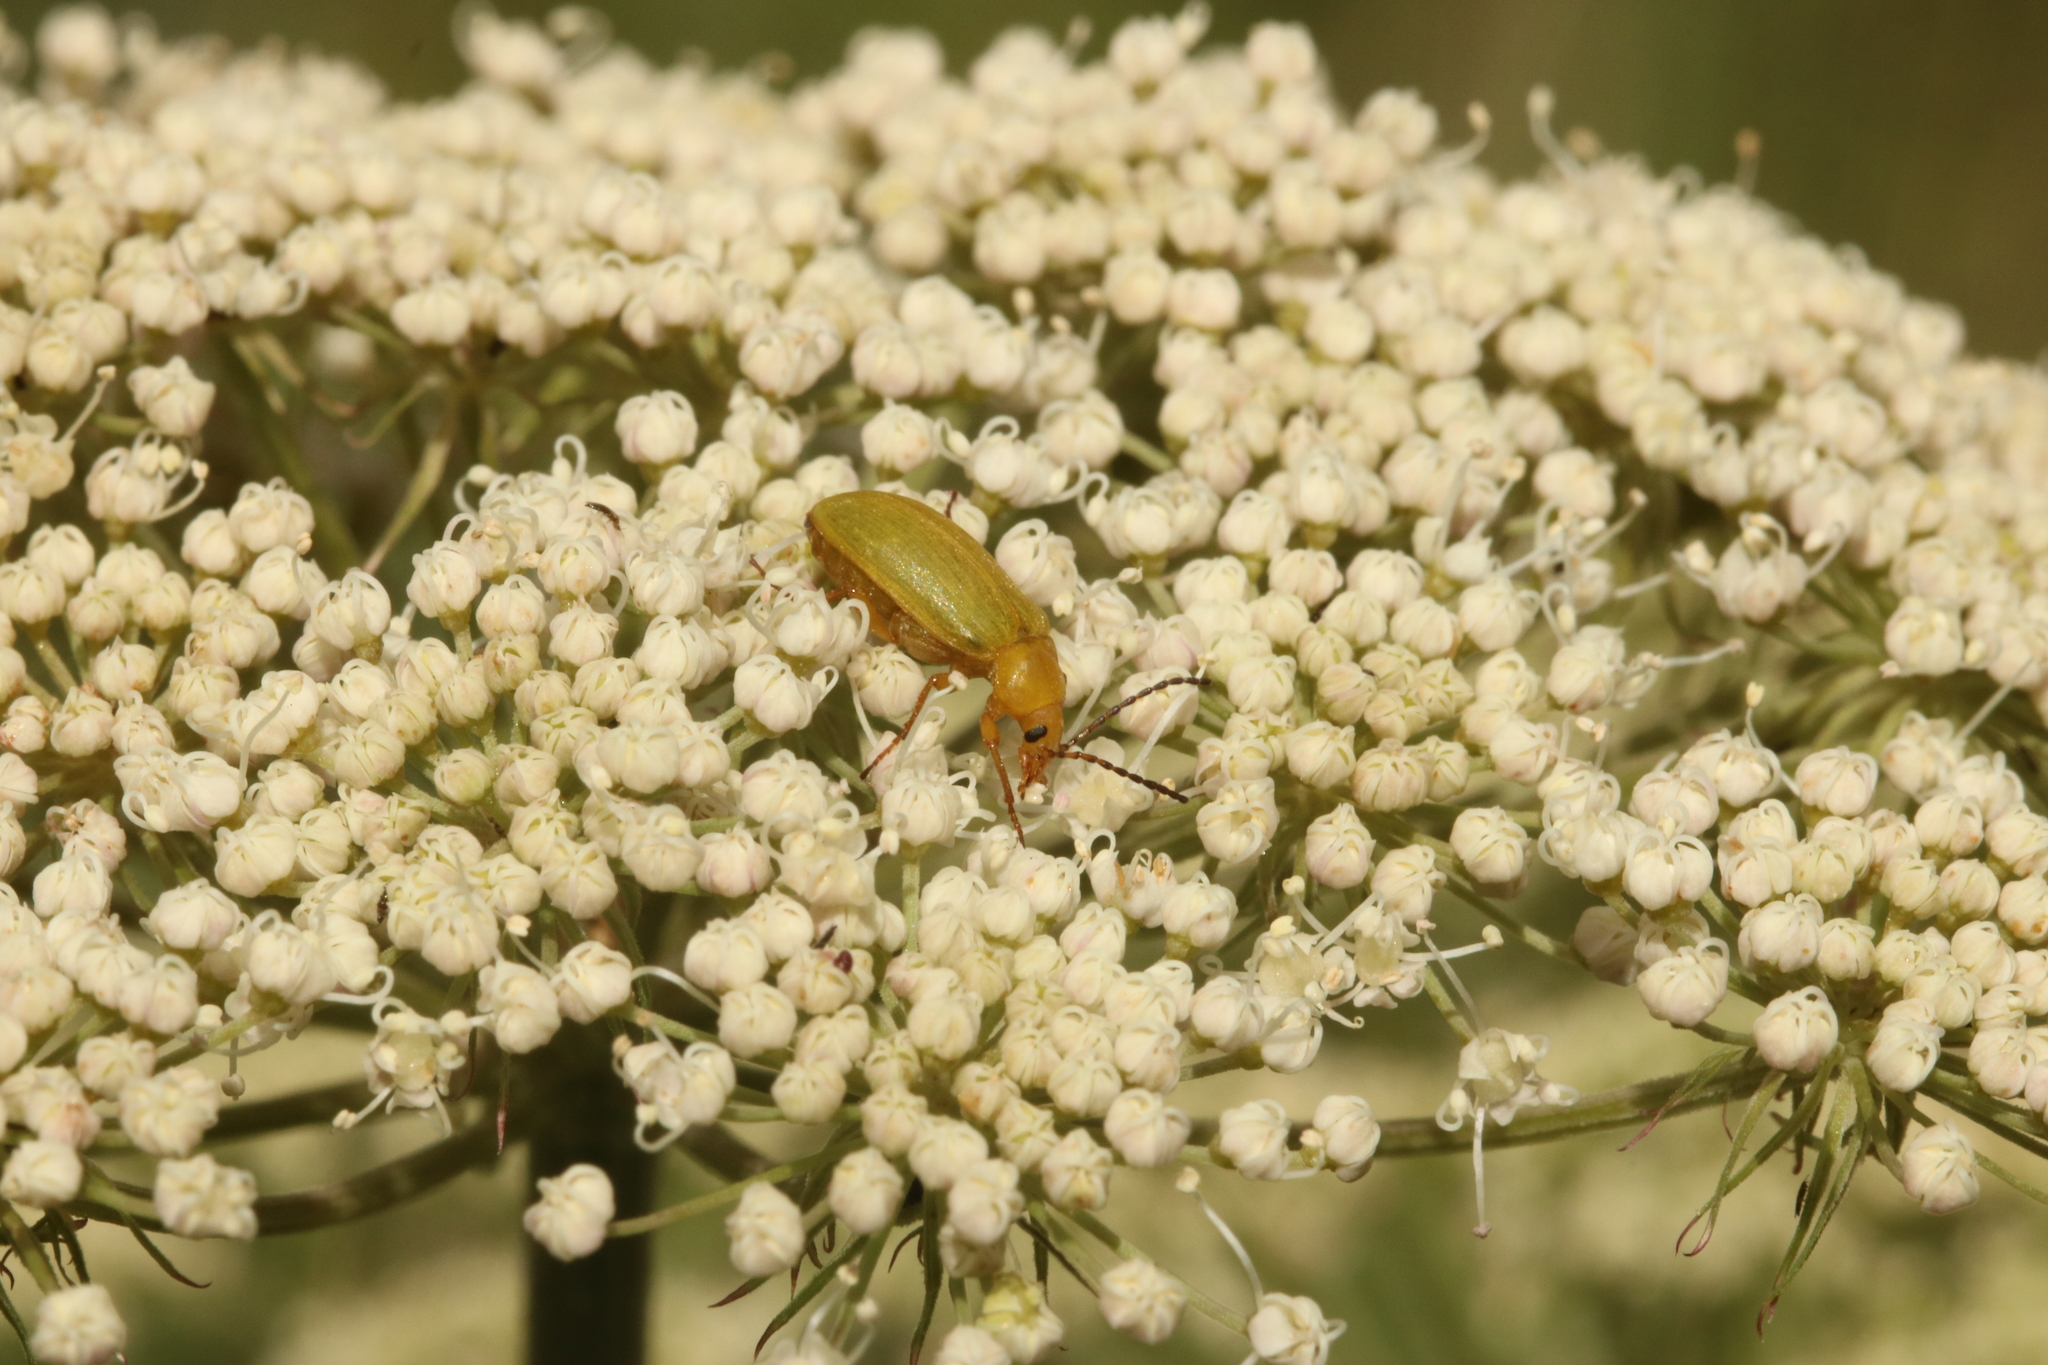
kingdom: Animalia
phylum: Arthropoda
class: Insecta
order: Coleoptera
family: Tenebrionidae
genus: Cteniopus
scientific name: Cteniopus sulphureus
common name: Sulphur beetle
